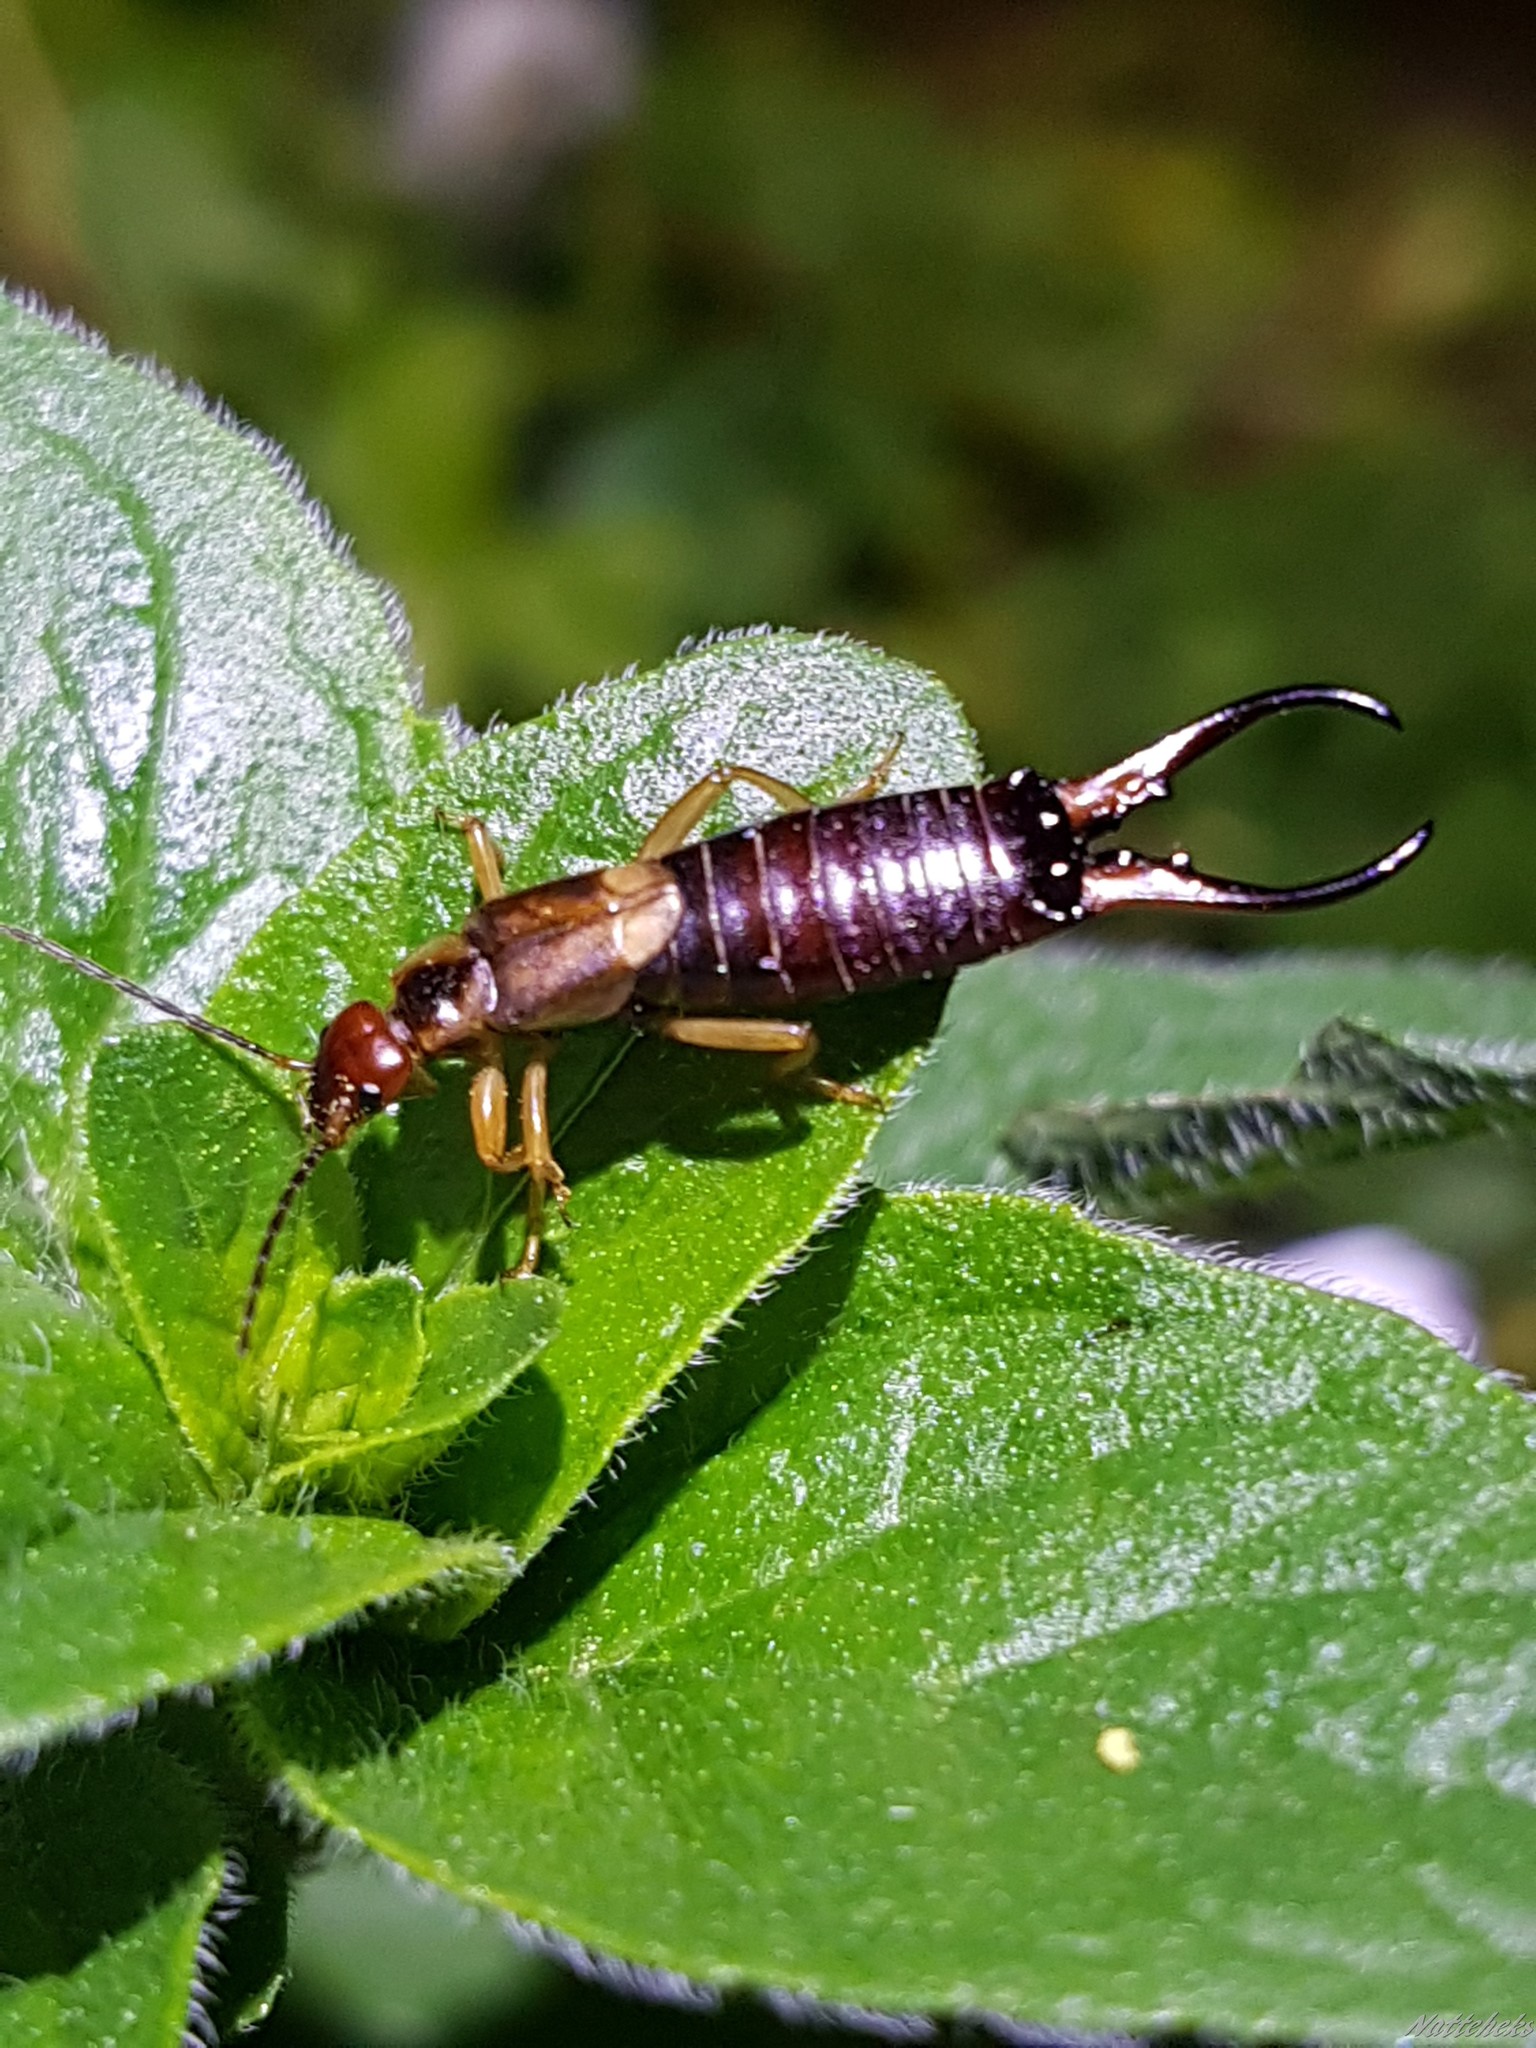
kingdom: Animalia
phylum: Arthropoda
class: Insecta
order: Dermaptera
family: Forficulidae
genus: Forficula
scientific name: Forficula
